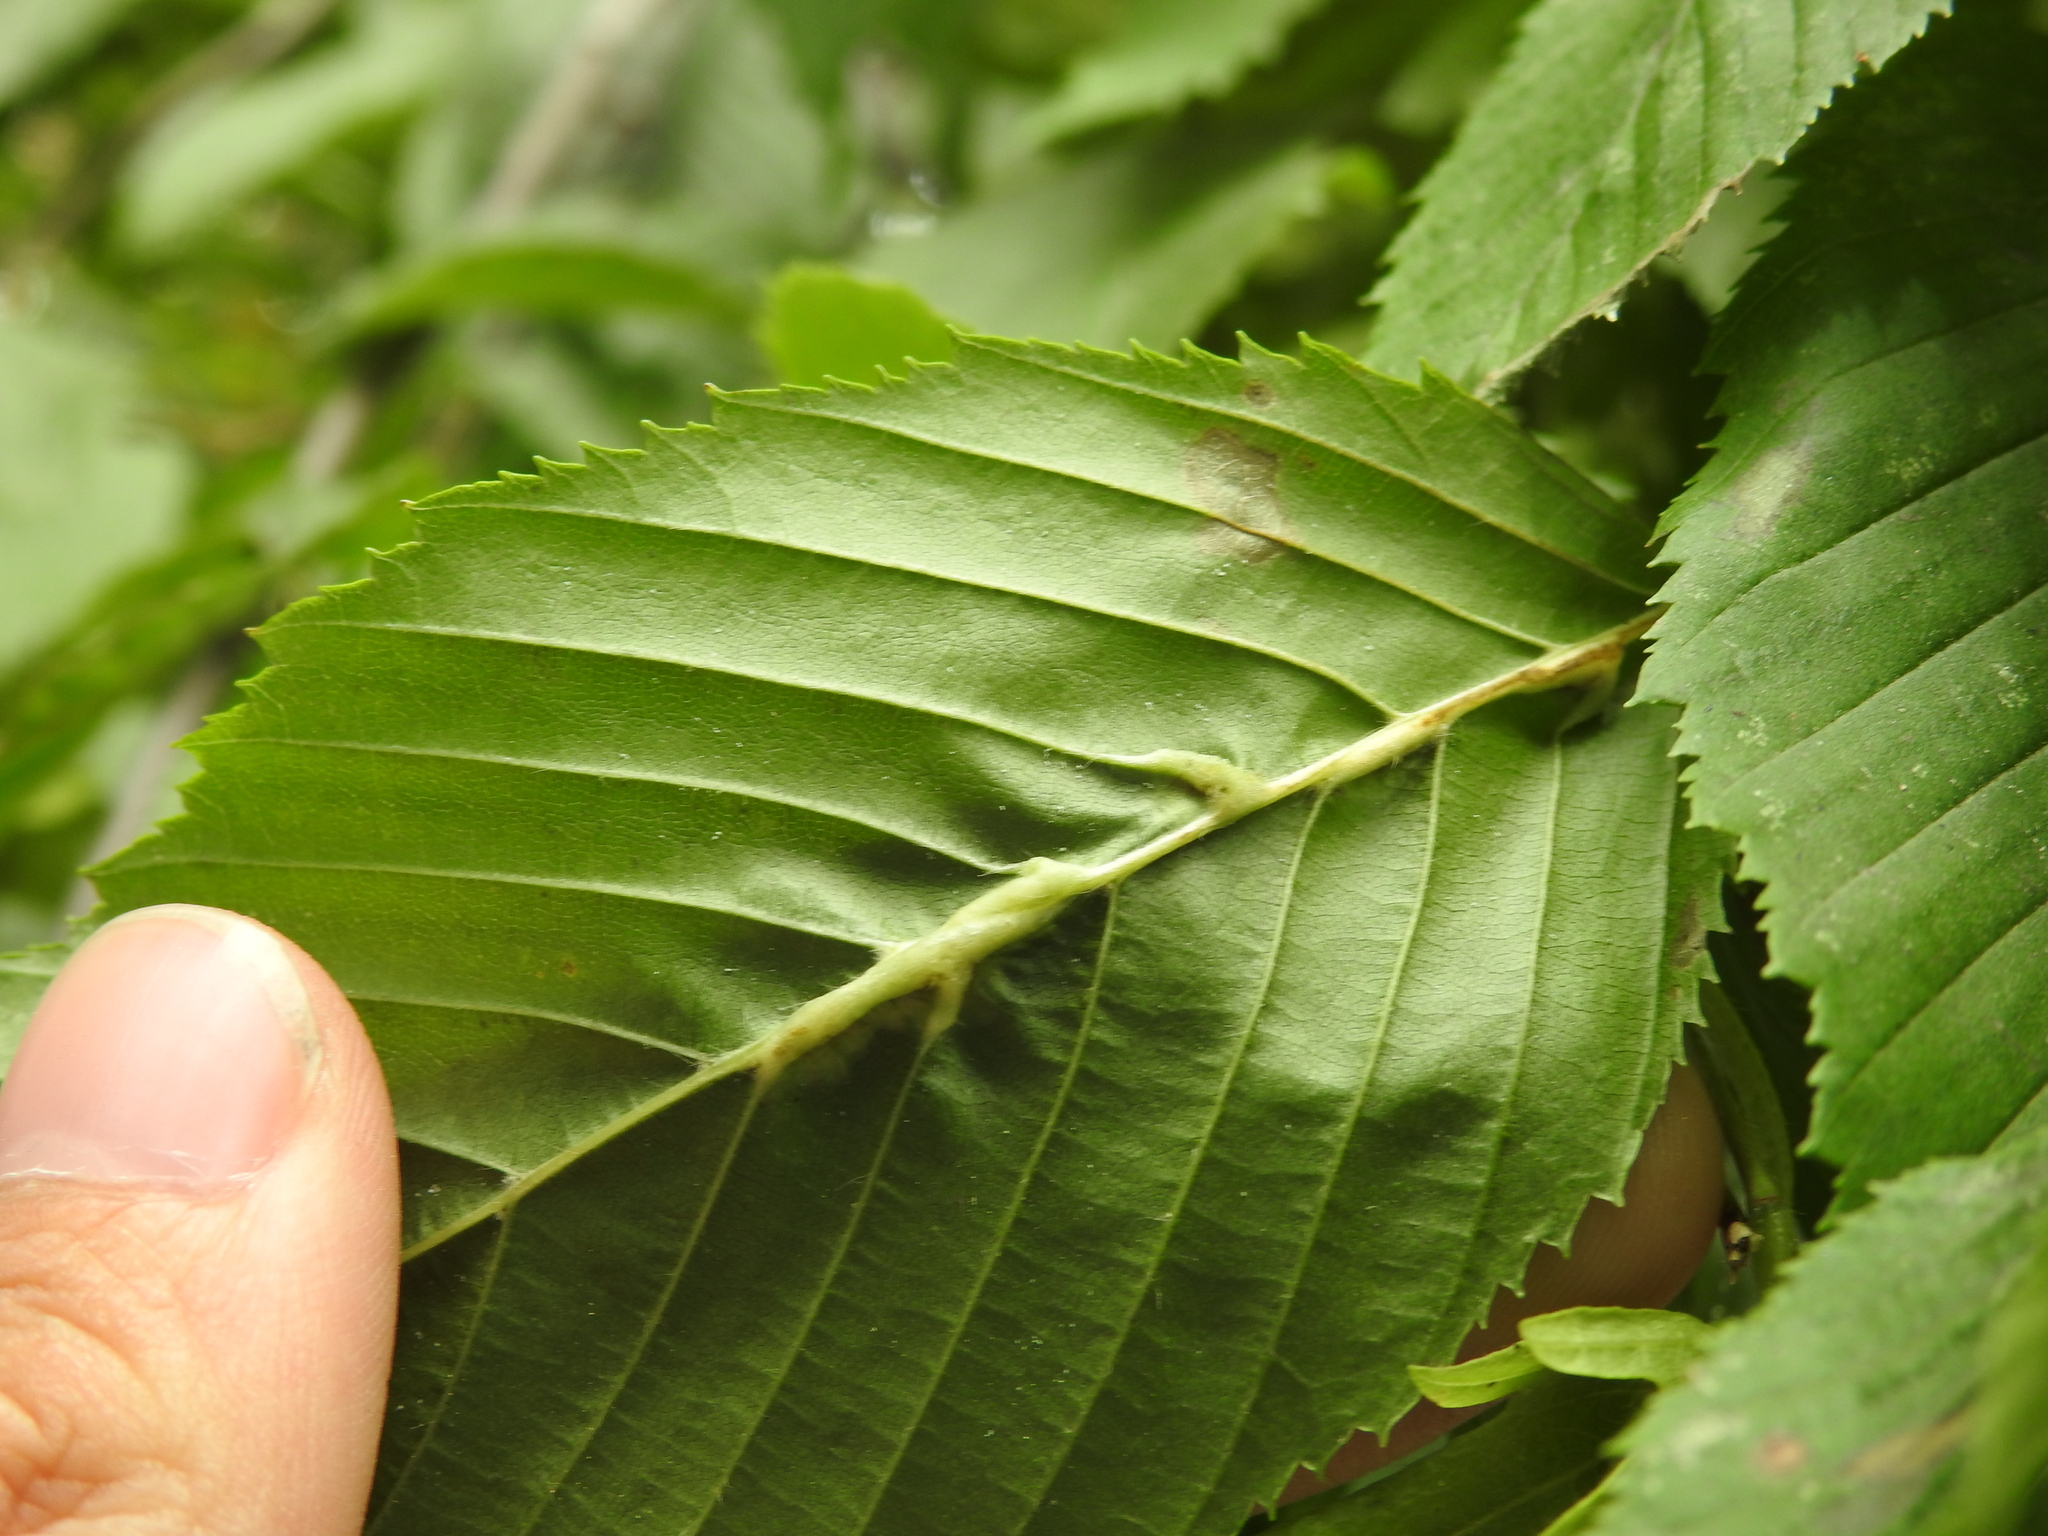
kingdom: Animalia
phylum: Arthropoda
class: Insecta
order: Diptera
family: Cecidomyiidae
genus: Zygiobia
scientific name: Zygiobia carpini
